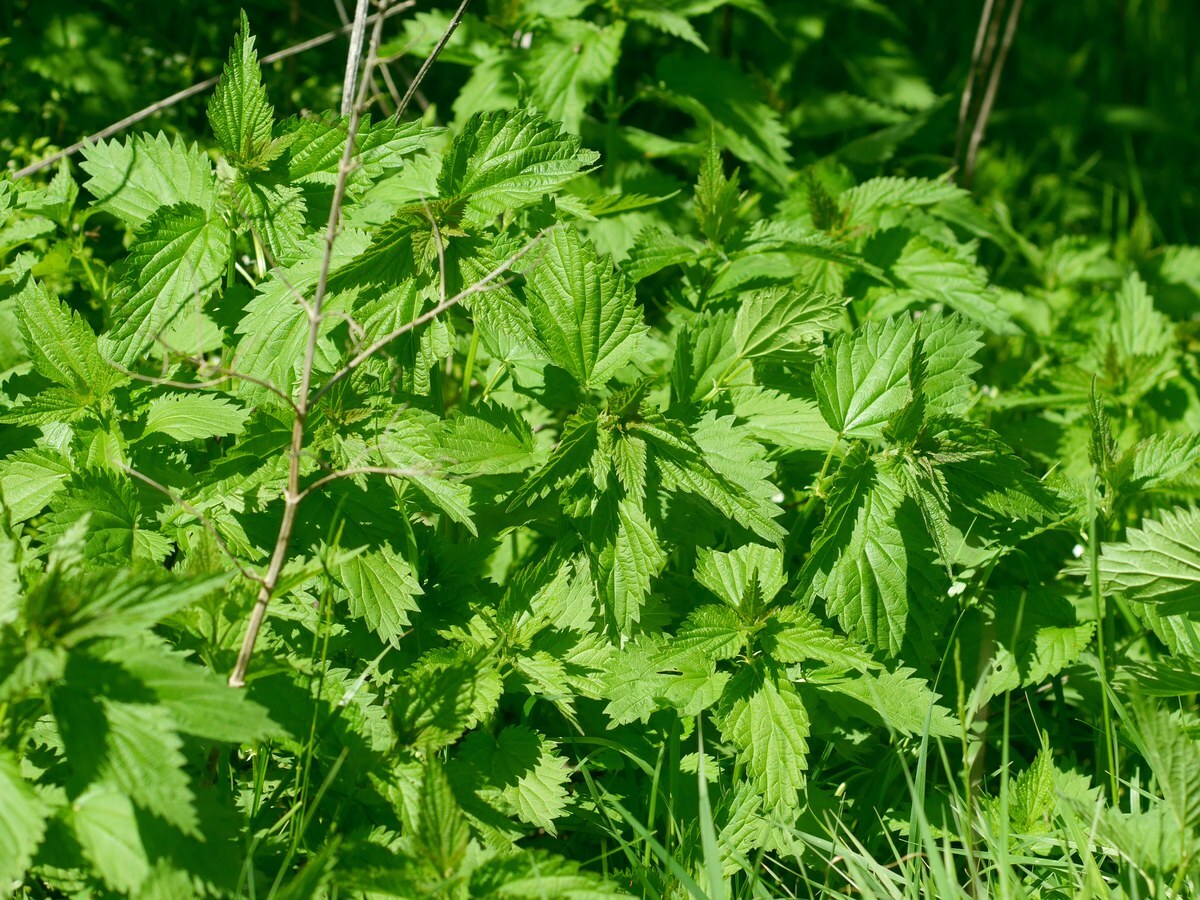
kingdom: Plantae
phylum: Tracheophyta
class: Magnoliopsida
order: Rosales
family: Urticaceae
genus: Urtica
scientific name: Urtica dioica
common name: Common nettle
